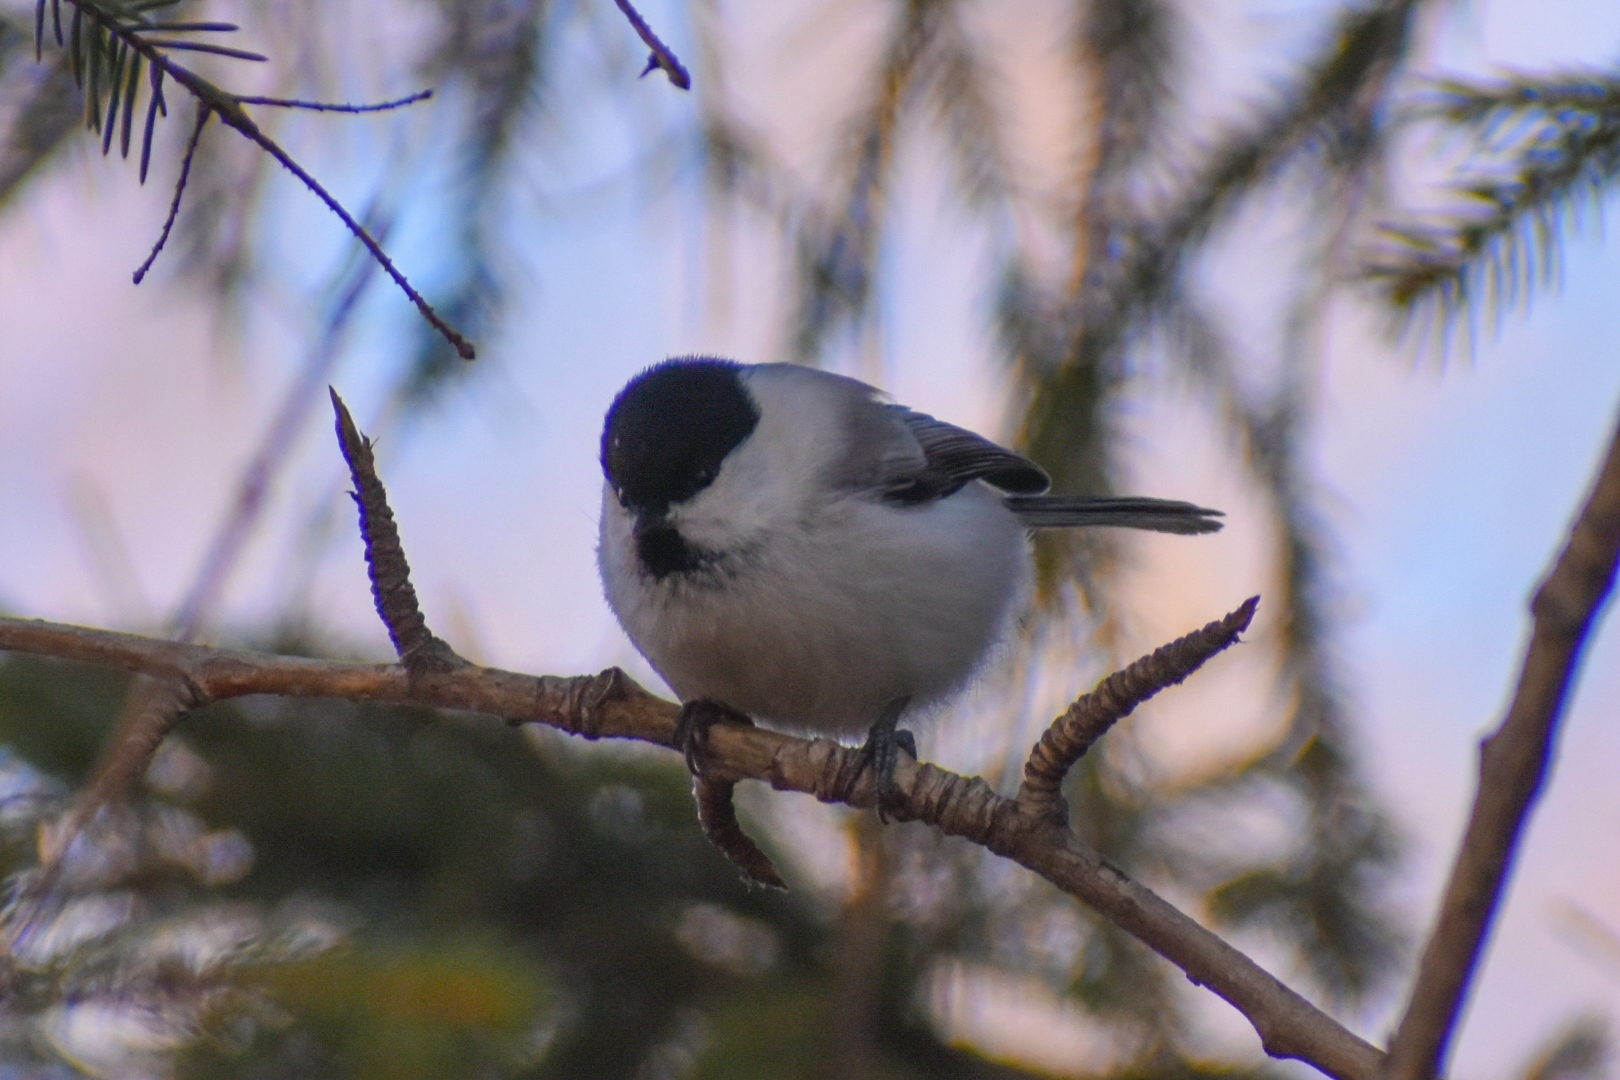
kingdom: Animalia
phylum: Chordata
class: Aves
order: Passeriformes
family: Paridae
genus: Poecile
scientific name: Poecile montanus
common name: Willow tit
